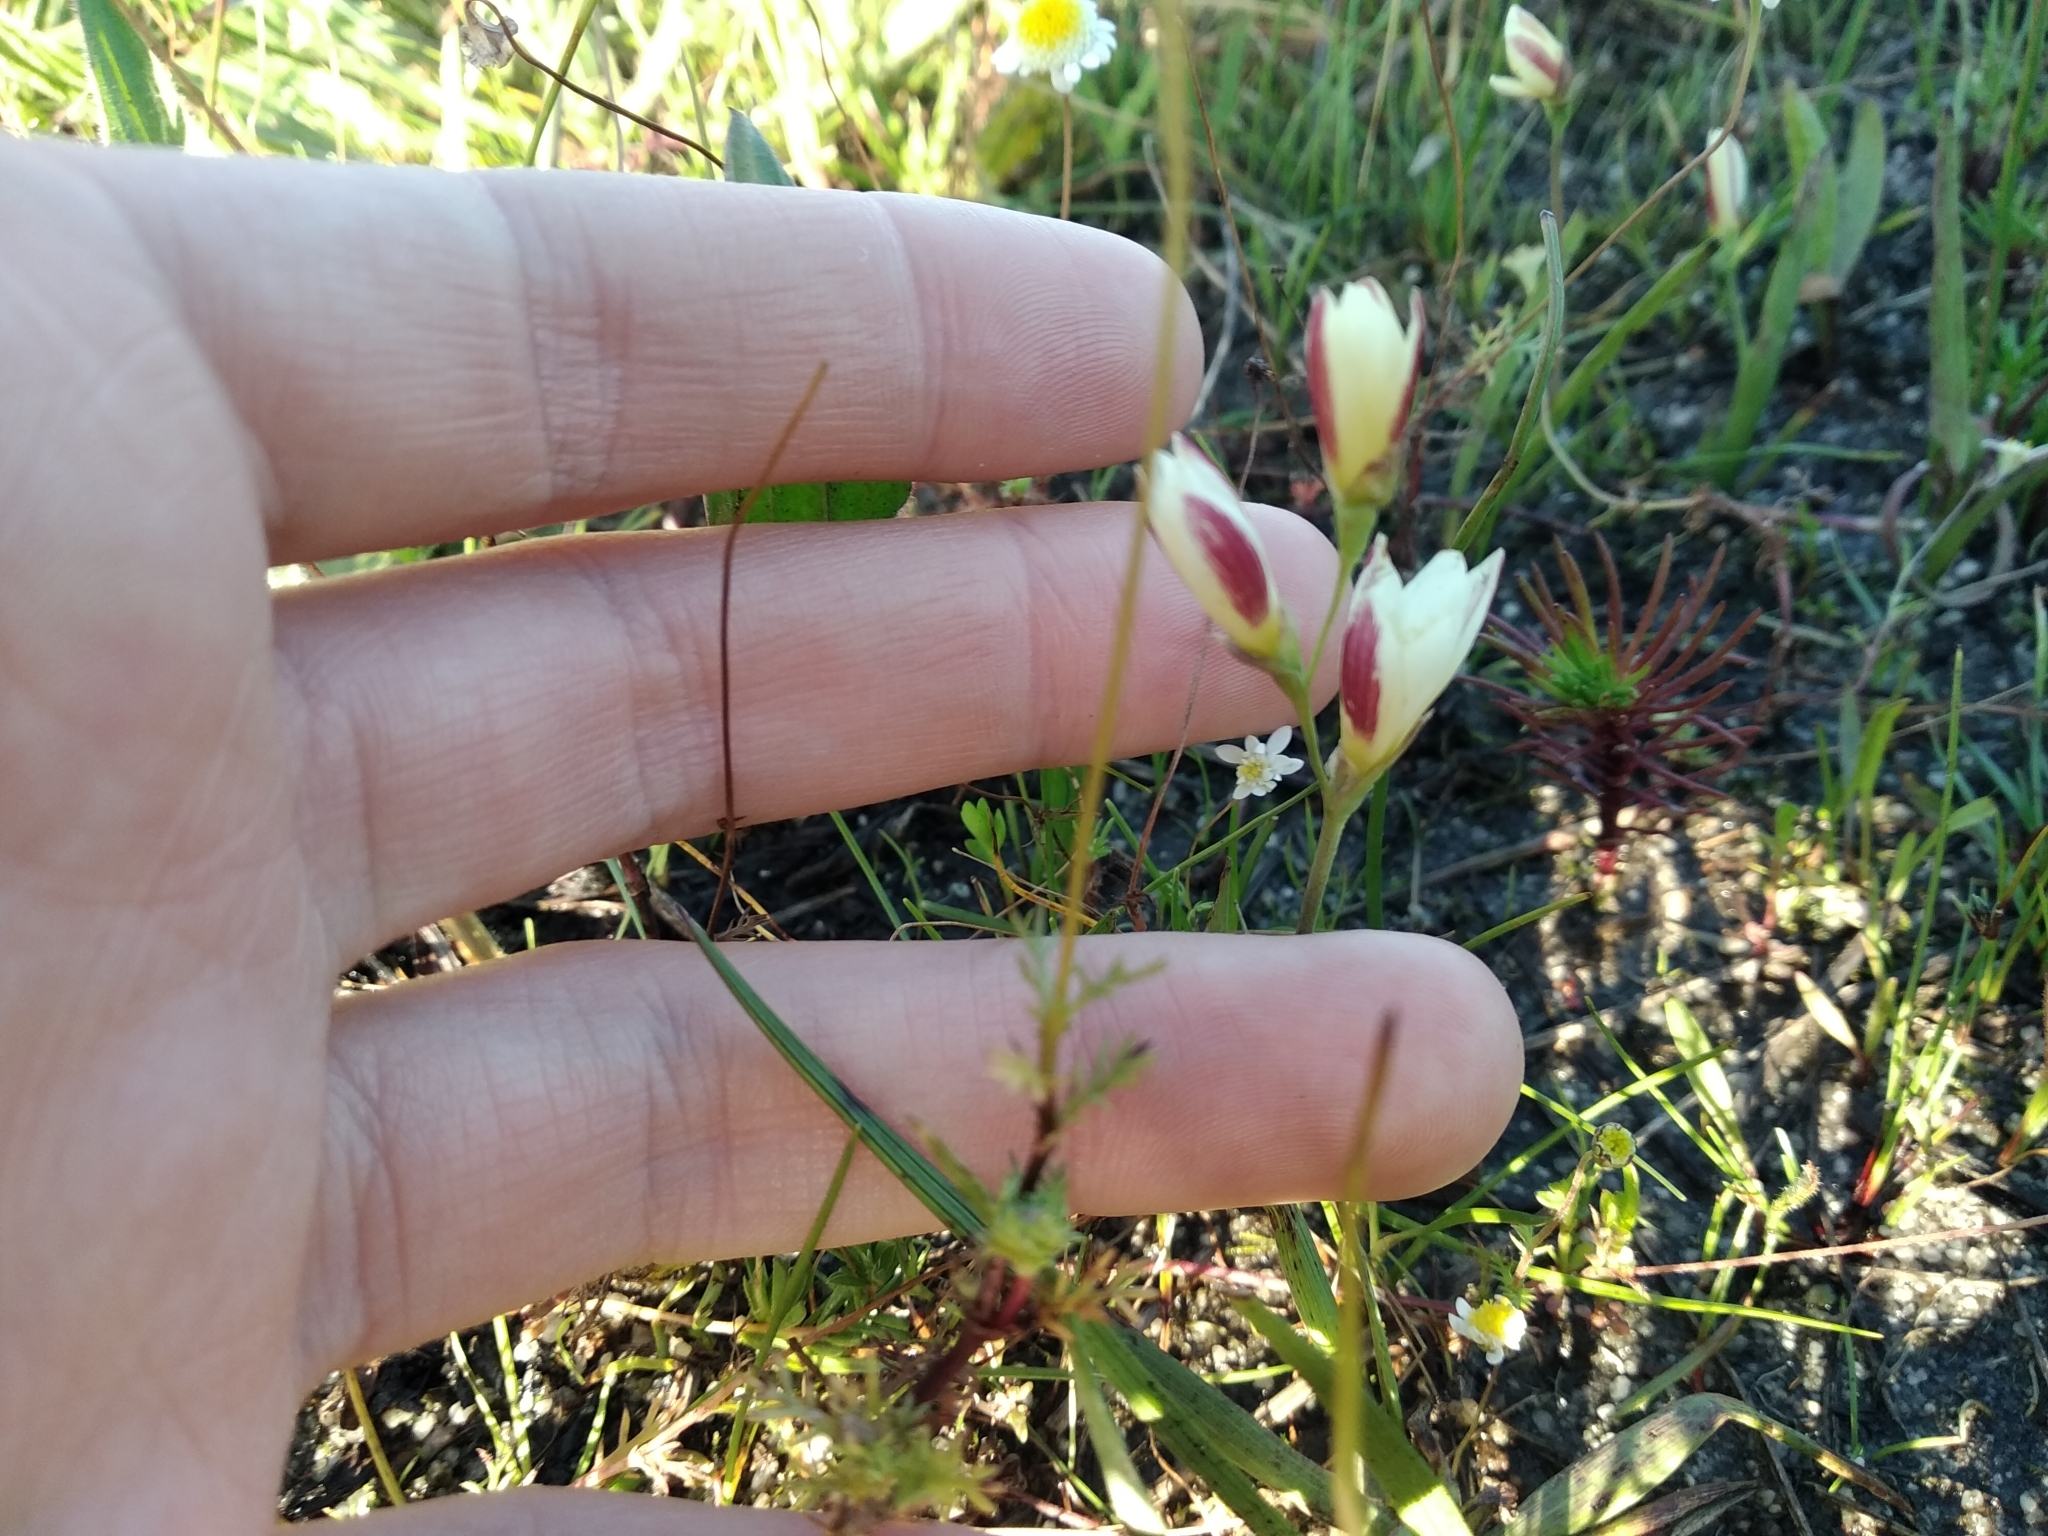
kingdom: Plantae
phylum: Tracheophyta
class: Liliopsida
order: Asparagales
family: Iridaceae
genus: Geissorhiza
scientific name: Geissorhiza imbricata
